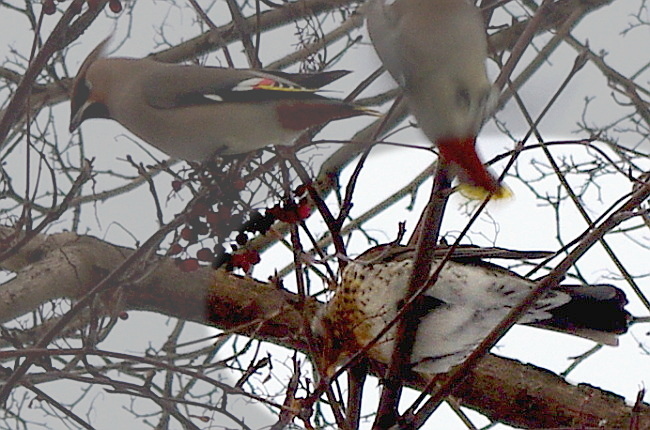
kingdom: Animalia
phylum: Chordata
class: Aves
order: Passeriformes
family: Turdidae
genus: Turdus
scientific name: Turdus pilaris
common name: Fieldfare
